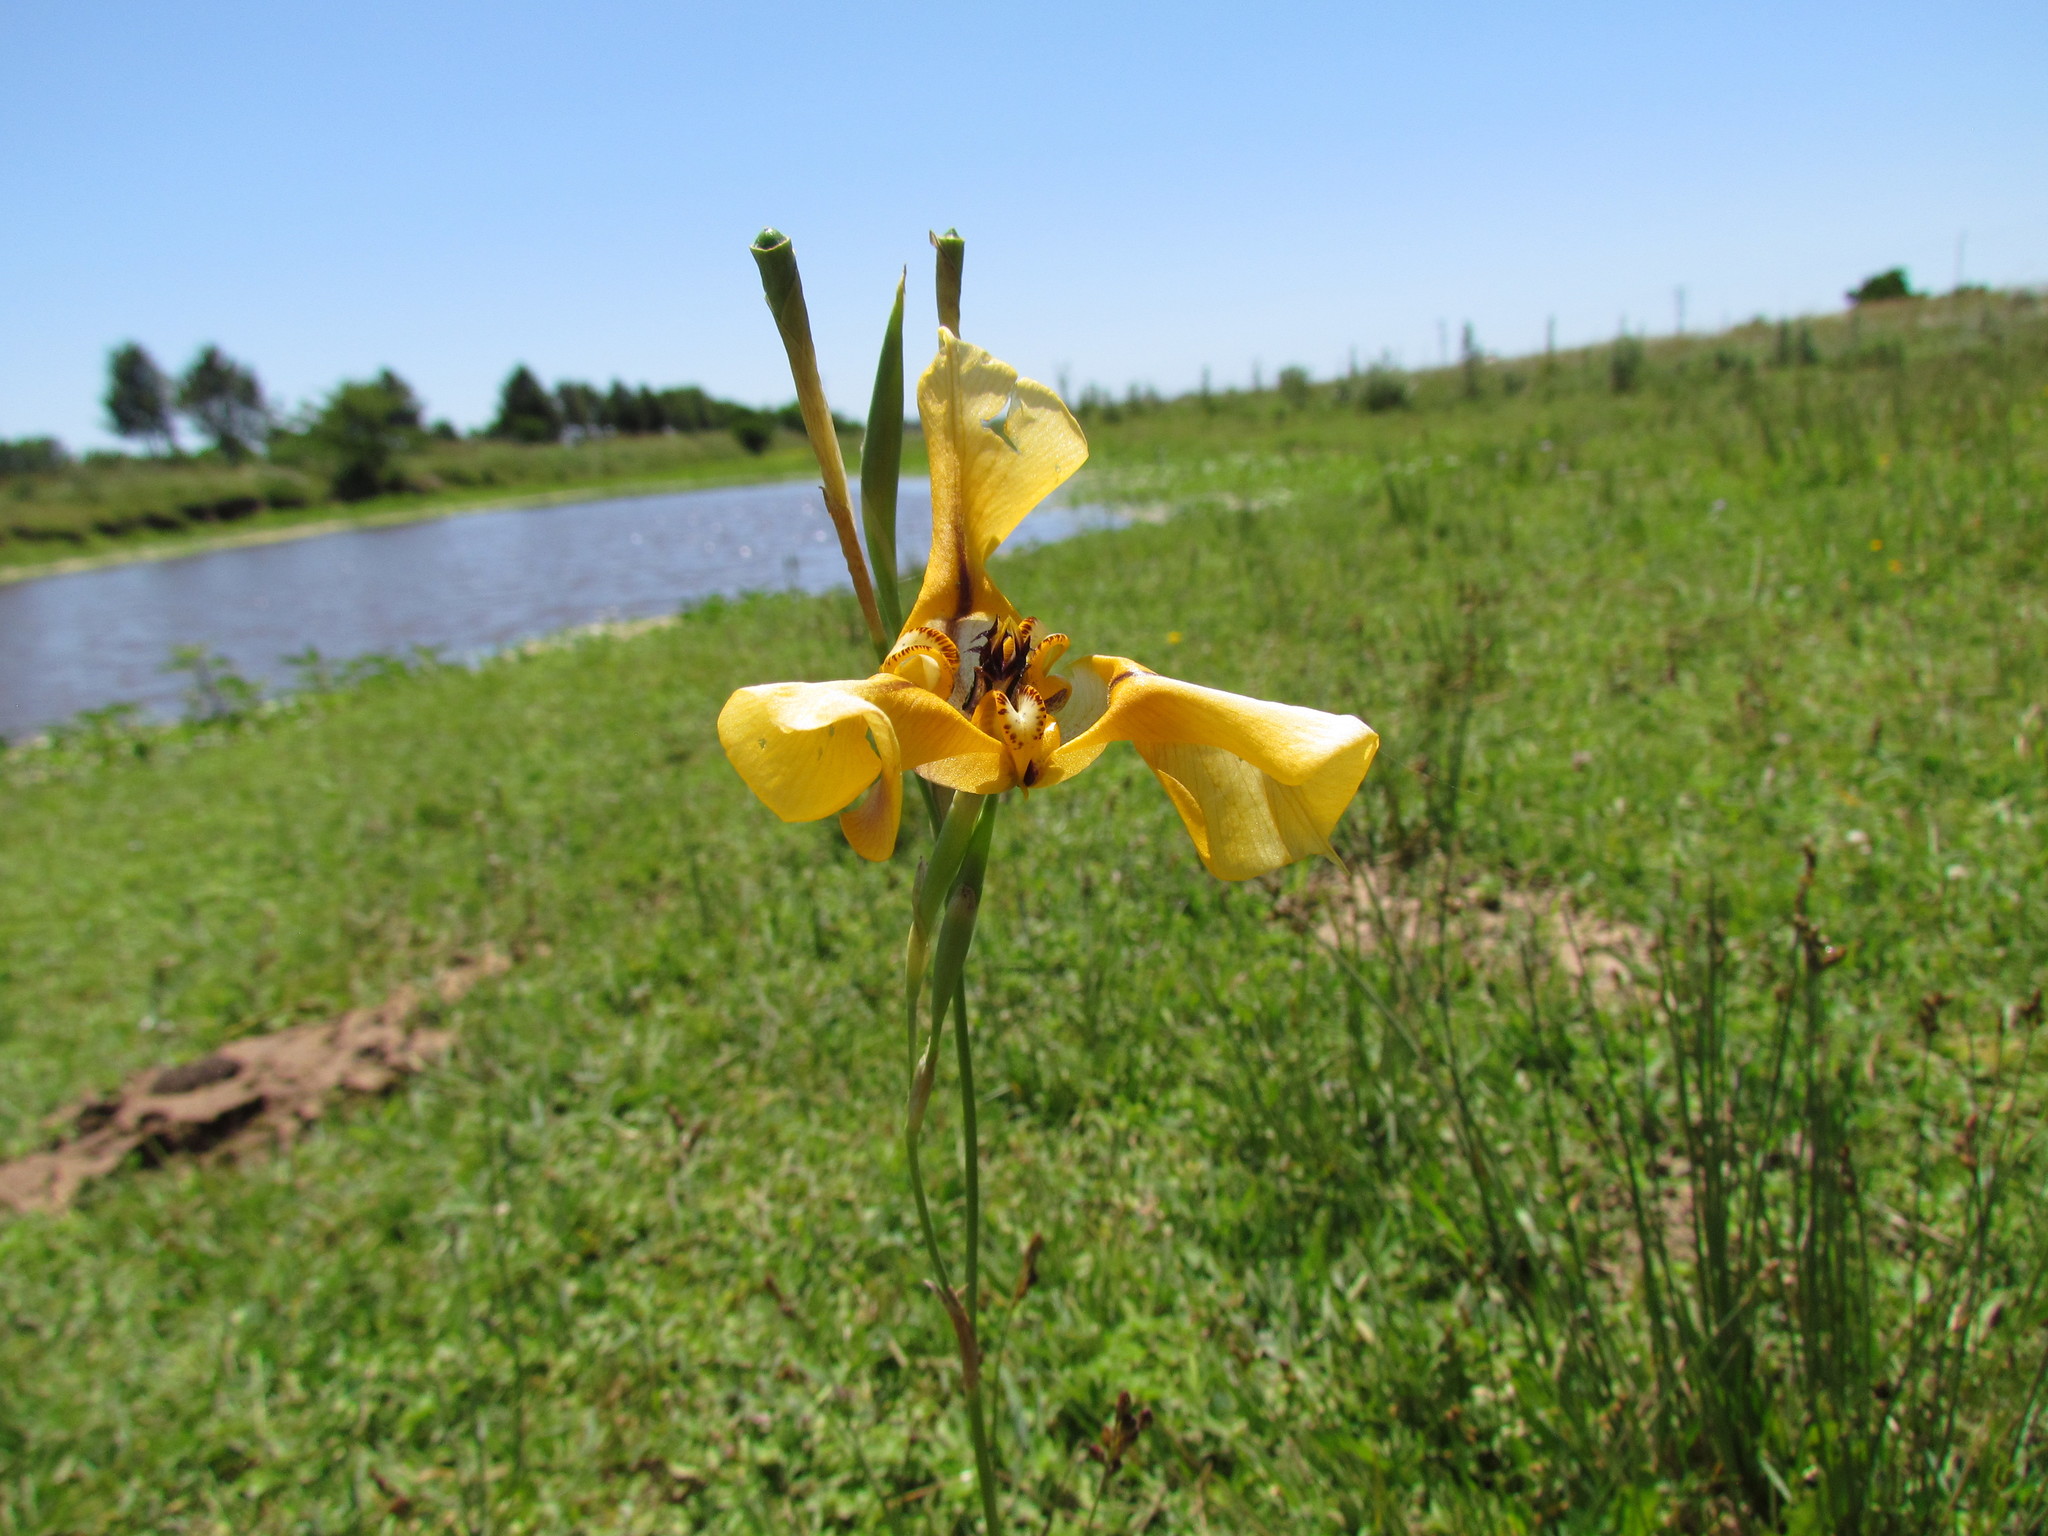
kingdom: Plantae
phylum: Tracheophyta
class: Liliopsida
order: Asparagales
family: Iridaceae
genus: Cypella
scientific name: Cypella herbertii
